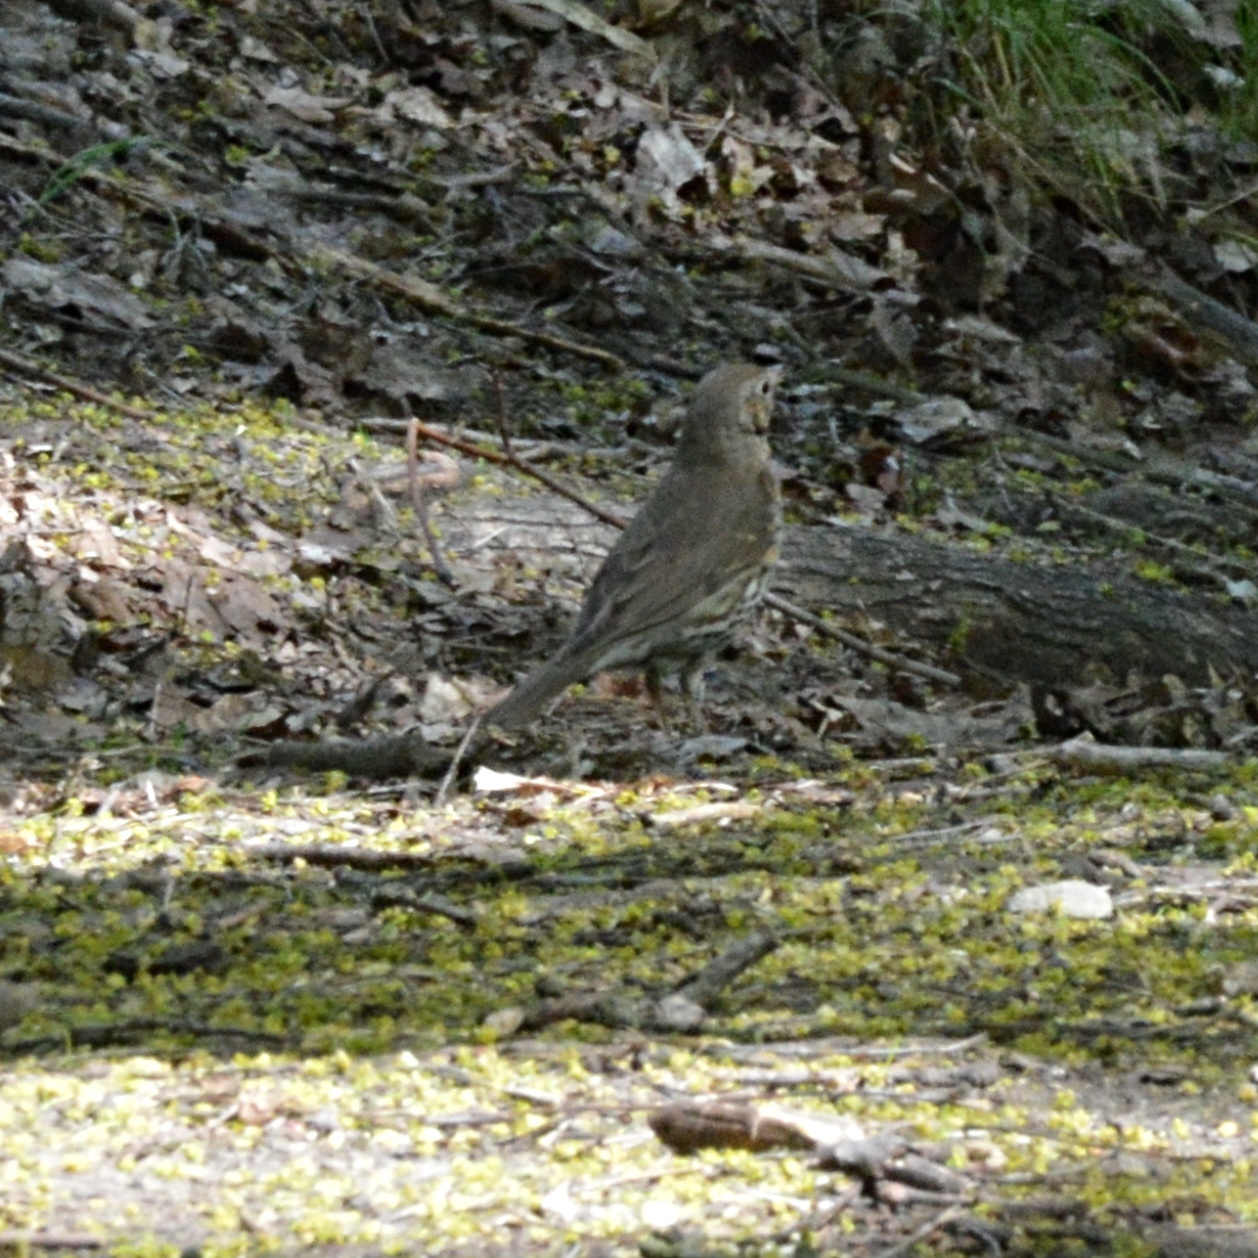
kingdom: Animalia
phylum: Chordata
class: Aves
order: Passeriformes
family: Turdidae
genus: Turdus
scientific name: Turdus philomelos
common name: Song thrush
